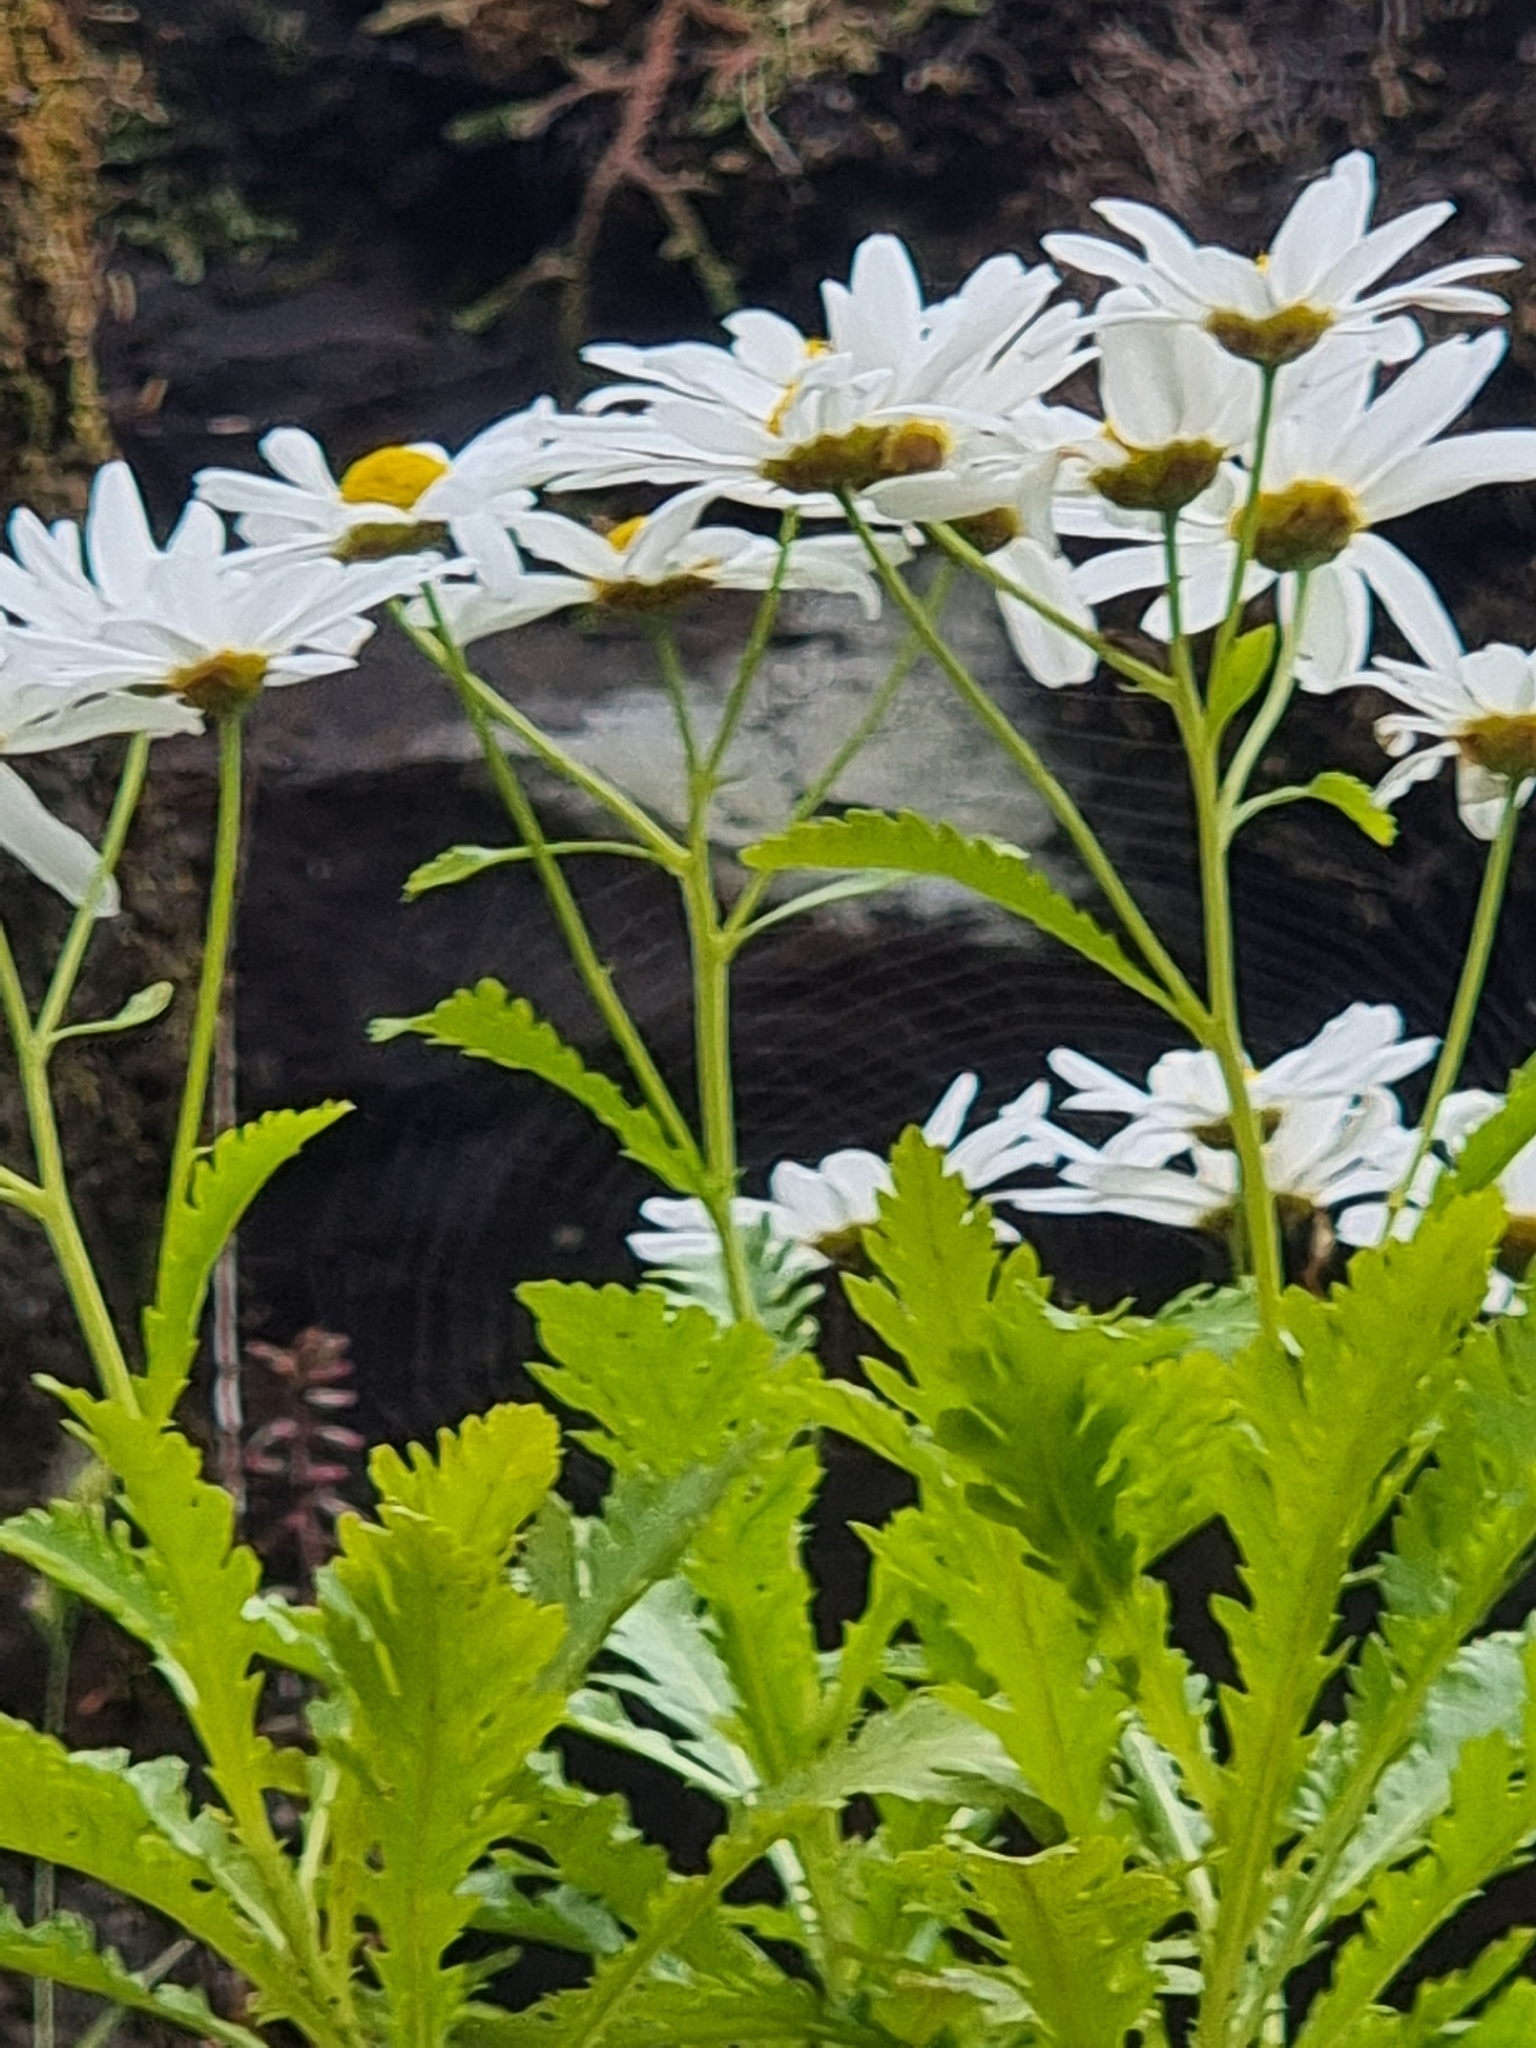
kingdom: Plantae
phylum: Tracheophyta
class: Magnoliopsida
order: Asterales
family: Asteraceae
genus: Argyranthemum
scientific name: Argyranthemum pinnatifidum
